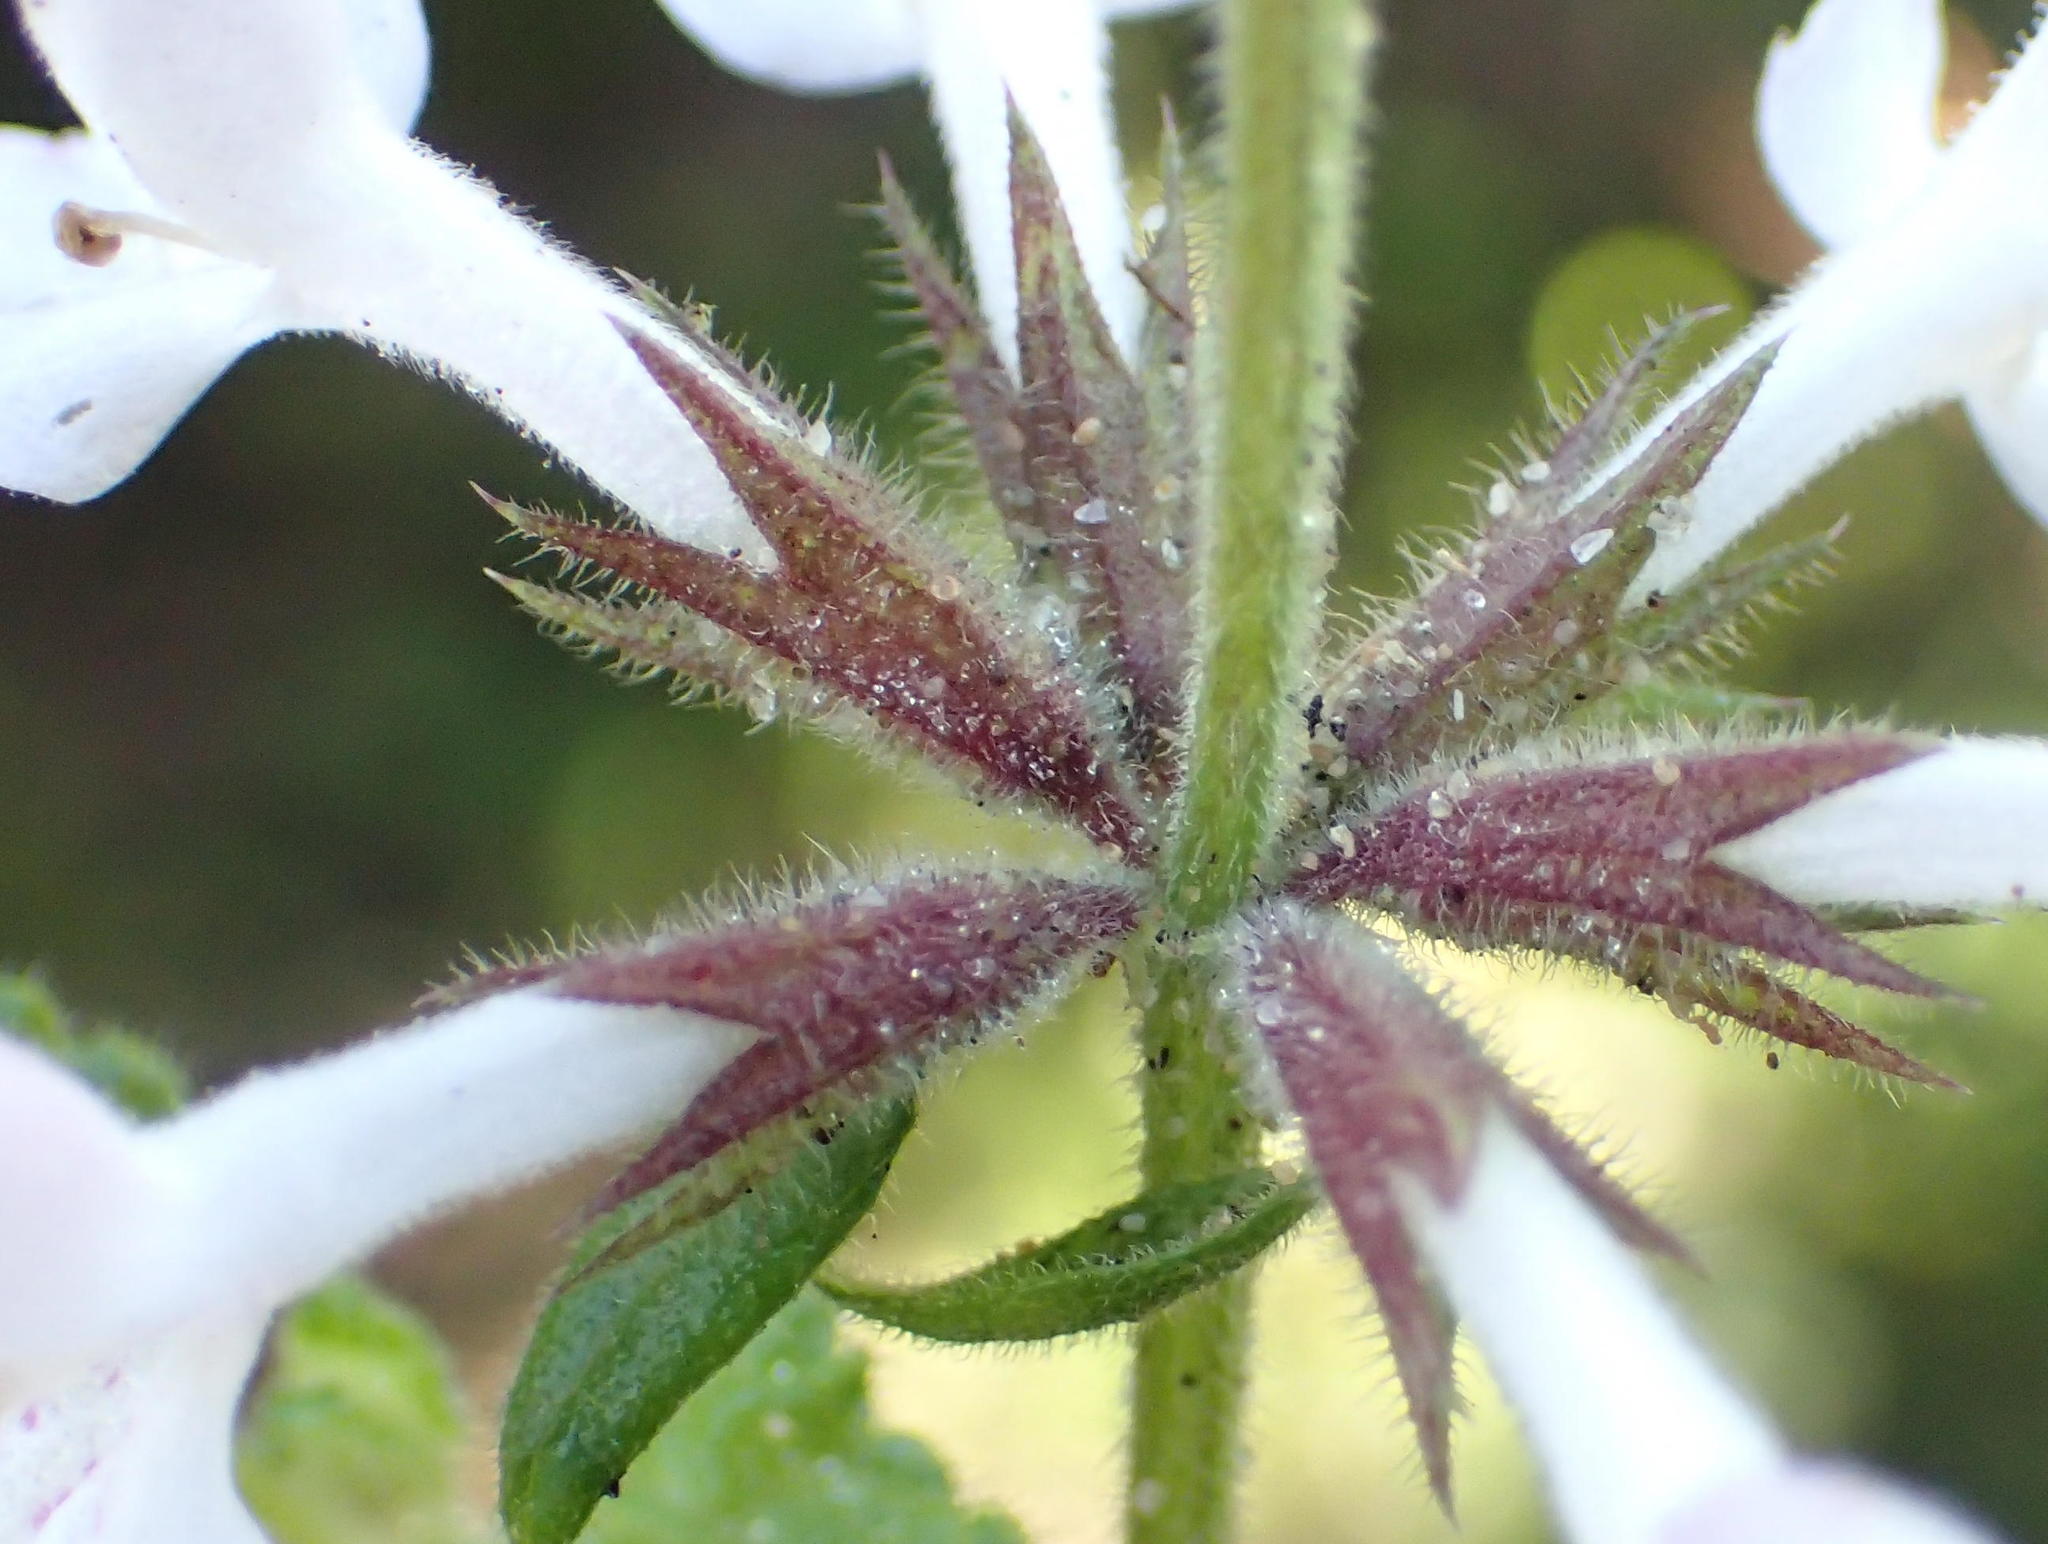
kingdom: Plantae
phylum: Tracheophyta
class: Magnoliopsida
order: Lamiales
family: Lamiaceae
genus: Stachys
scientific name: Stachys aethiopica
